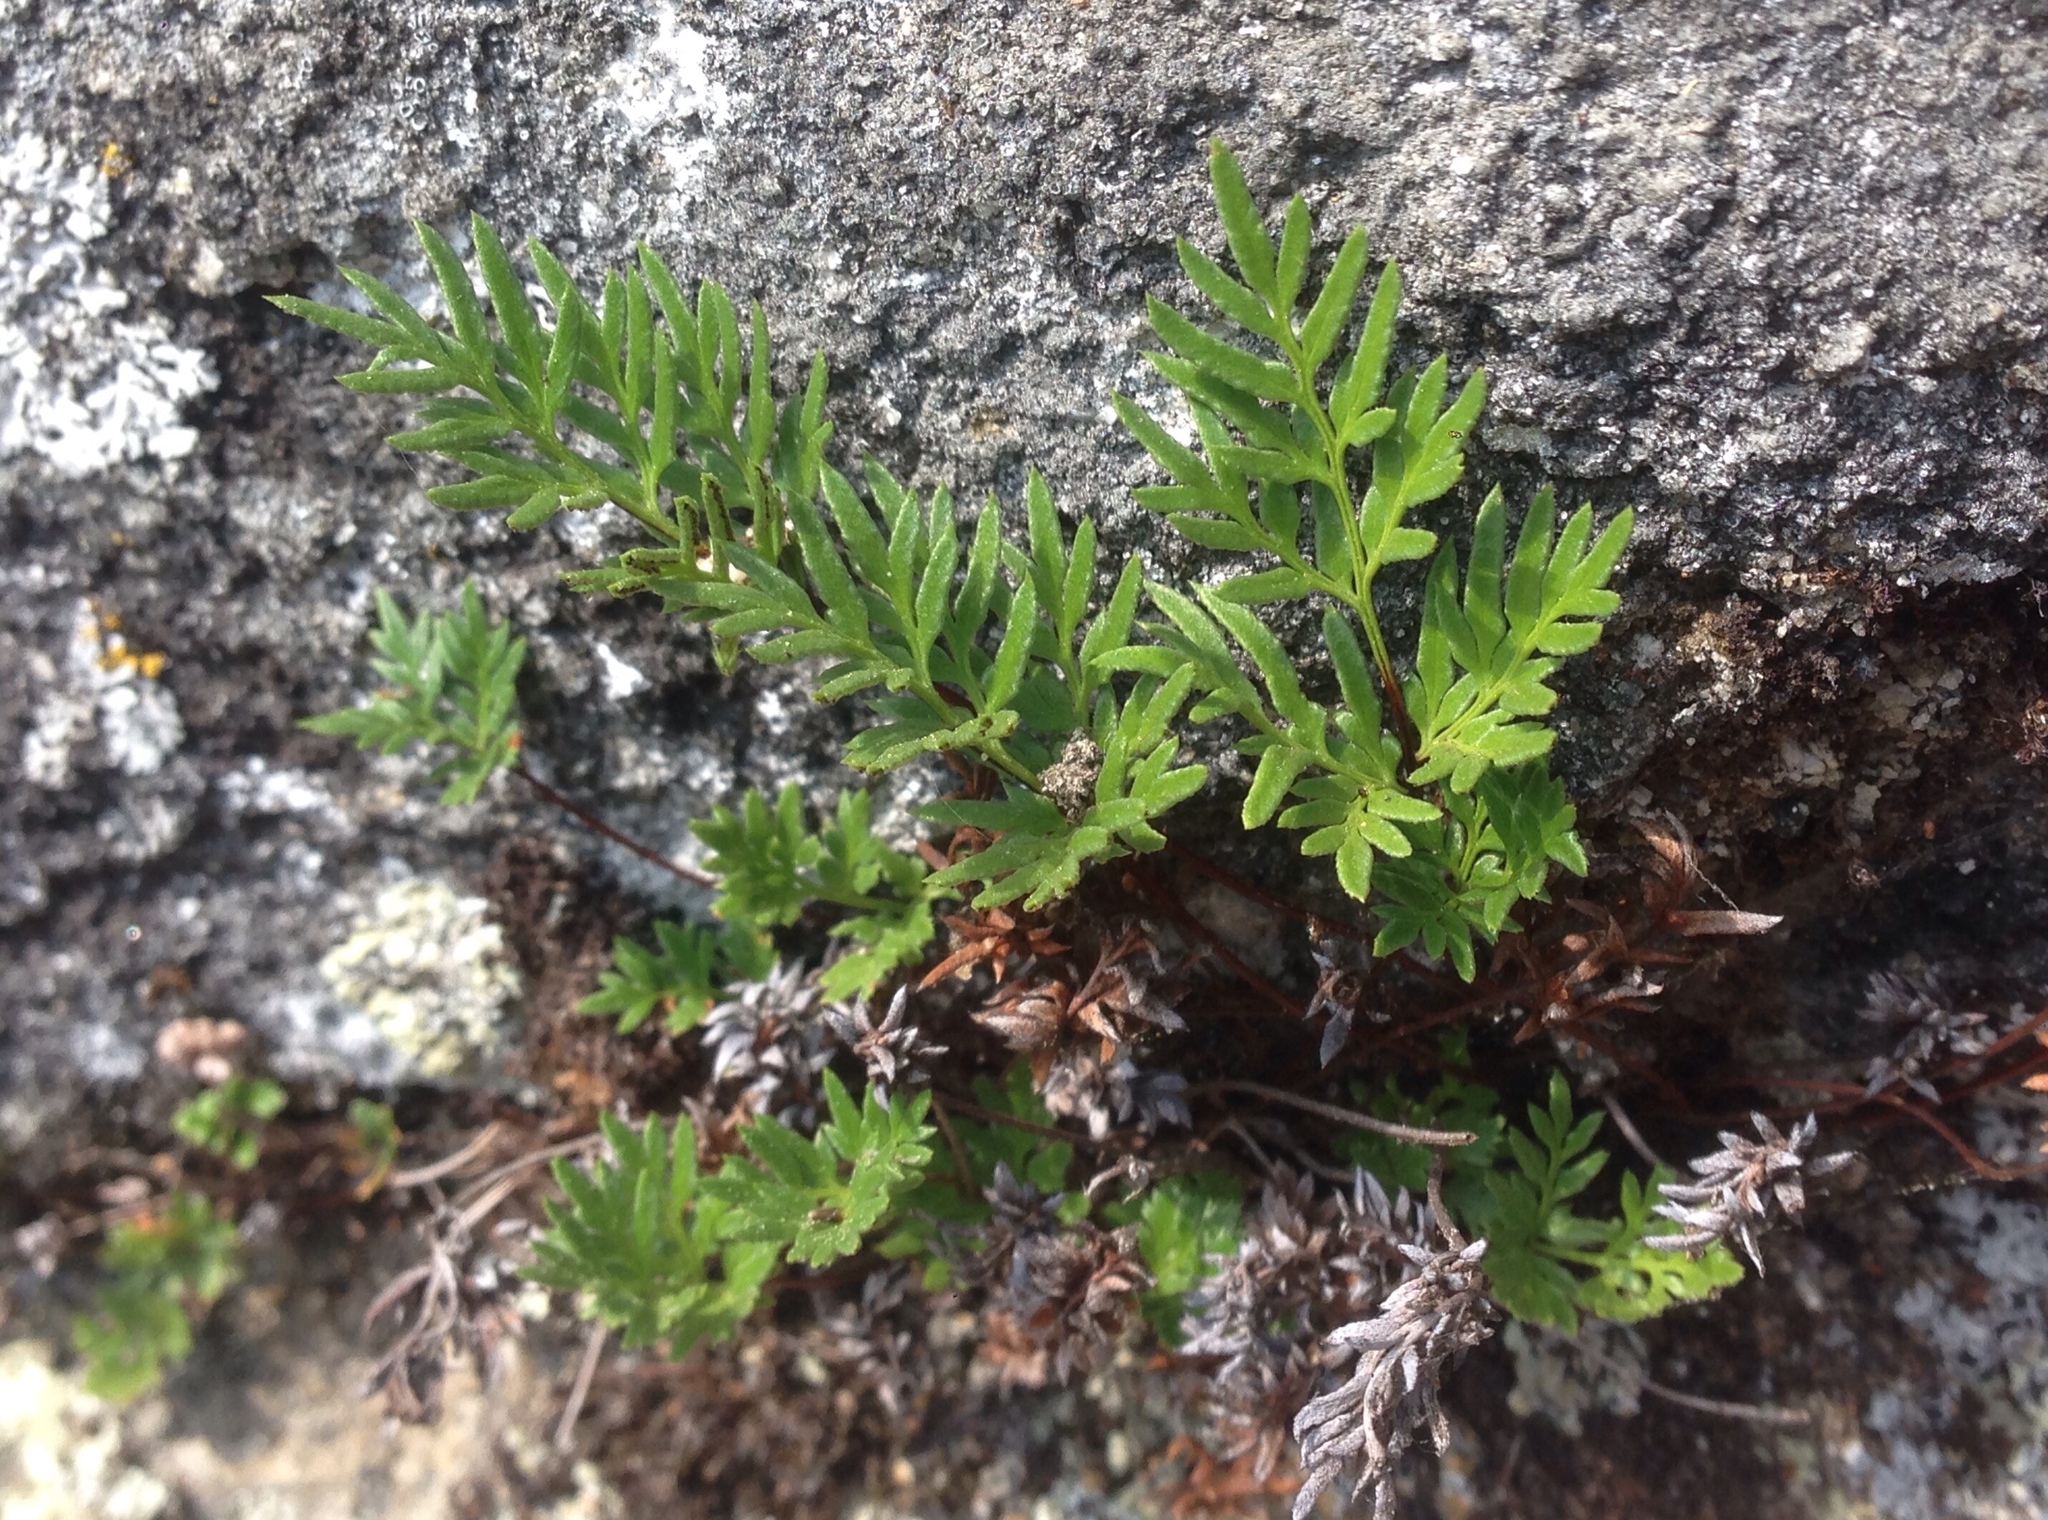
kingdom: Plantae
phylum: Tracheophyta
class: Polypodiopsida
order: Polypodiales
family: Pteridaceae
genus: Aspidotis
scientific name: Aspidotis densa
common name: Indian's dream
